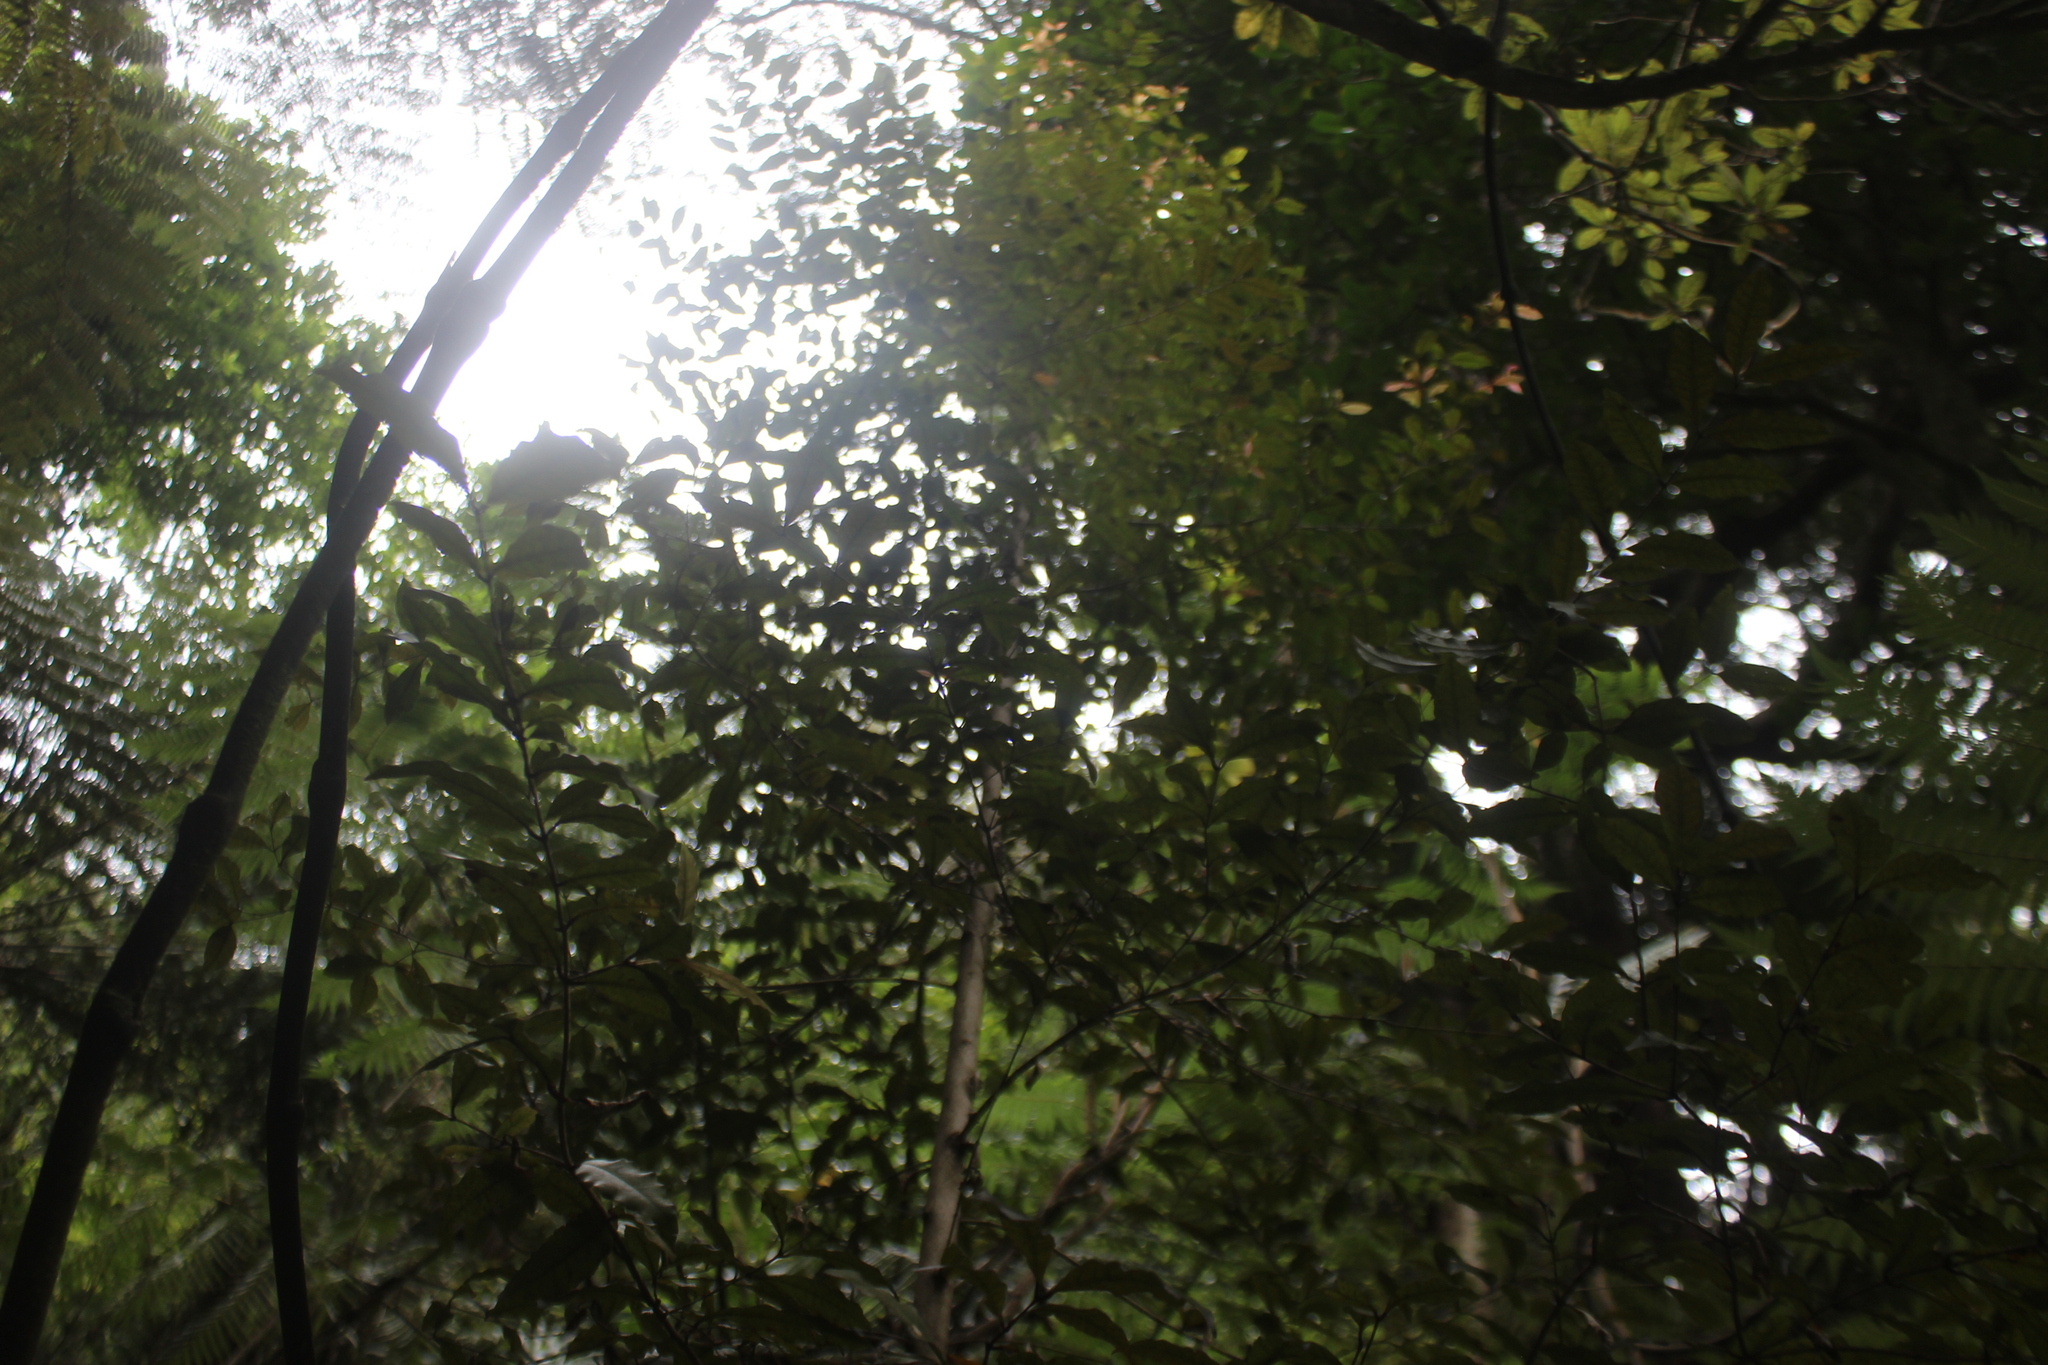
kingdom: Plantae
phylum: Tracheophyta
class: Magnoliopsida
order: Myrtales
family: Myrtaceae
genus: Syzygium
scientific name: Syzygium maire
